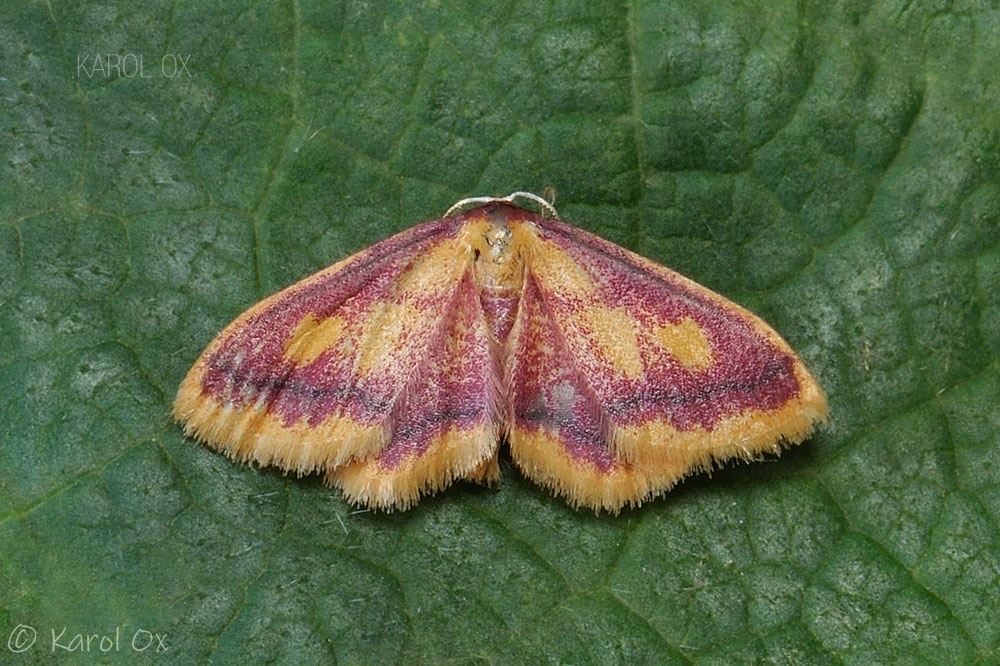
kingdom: Animalia
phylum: Arthropoda
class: Insecta
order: Lepidoptera
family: Geometridae
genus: Idaea
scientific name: Idaea muricata
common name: Purple-bordered gold
